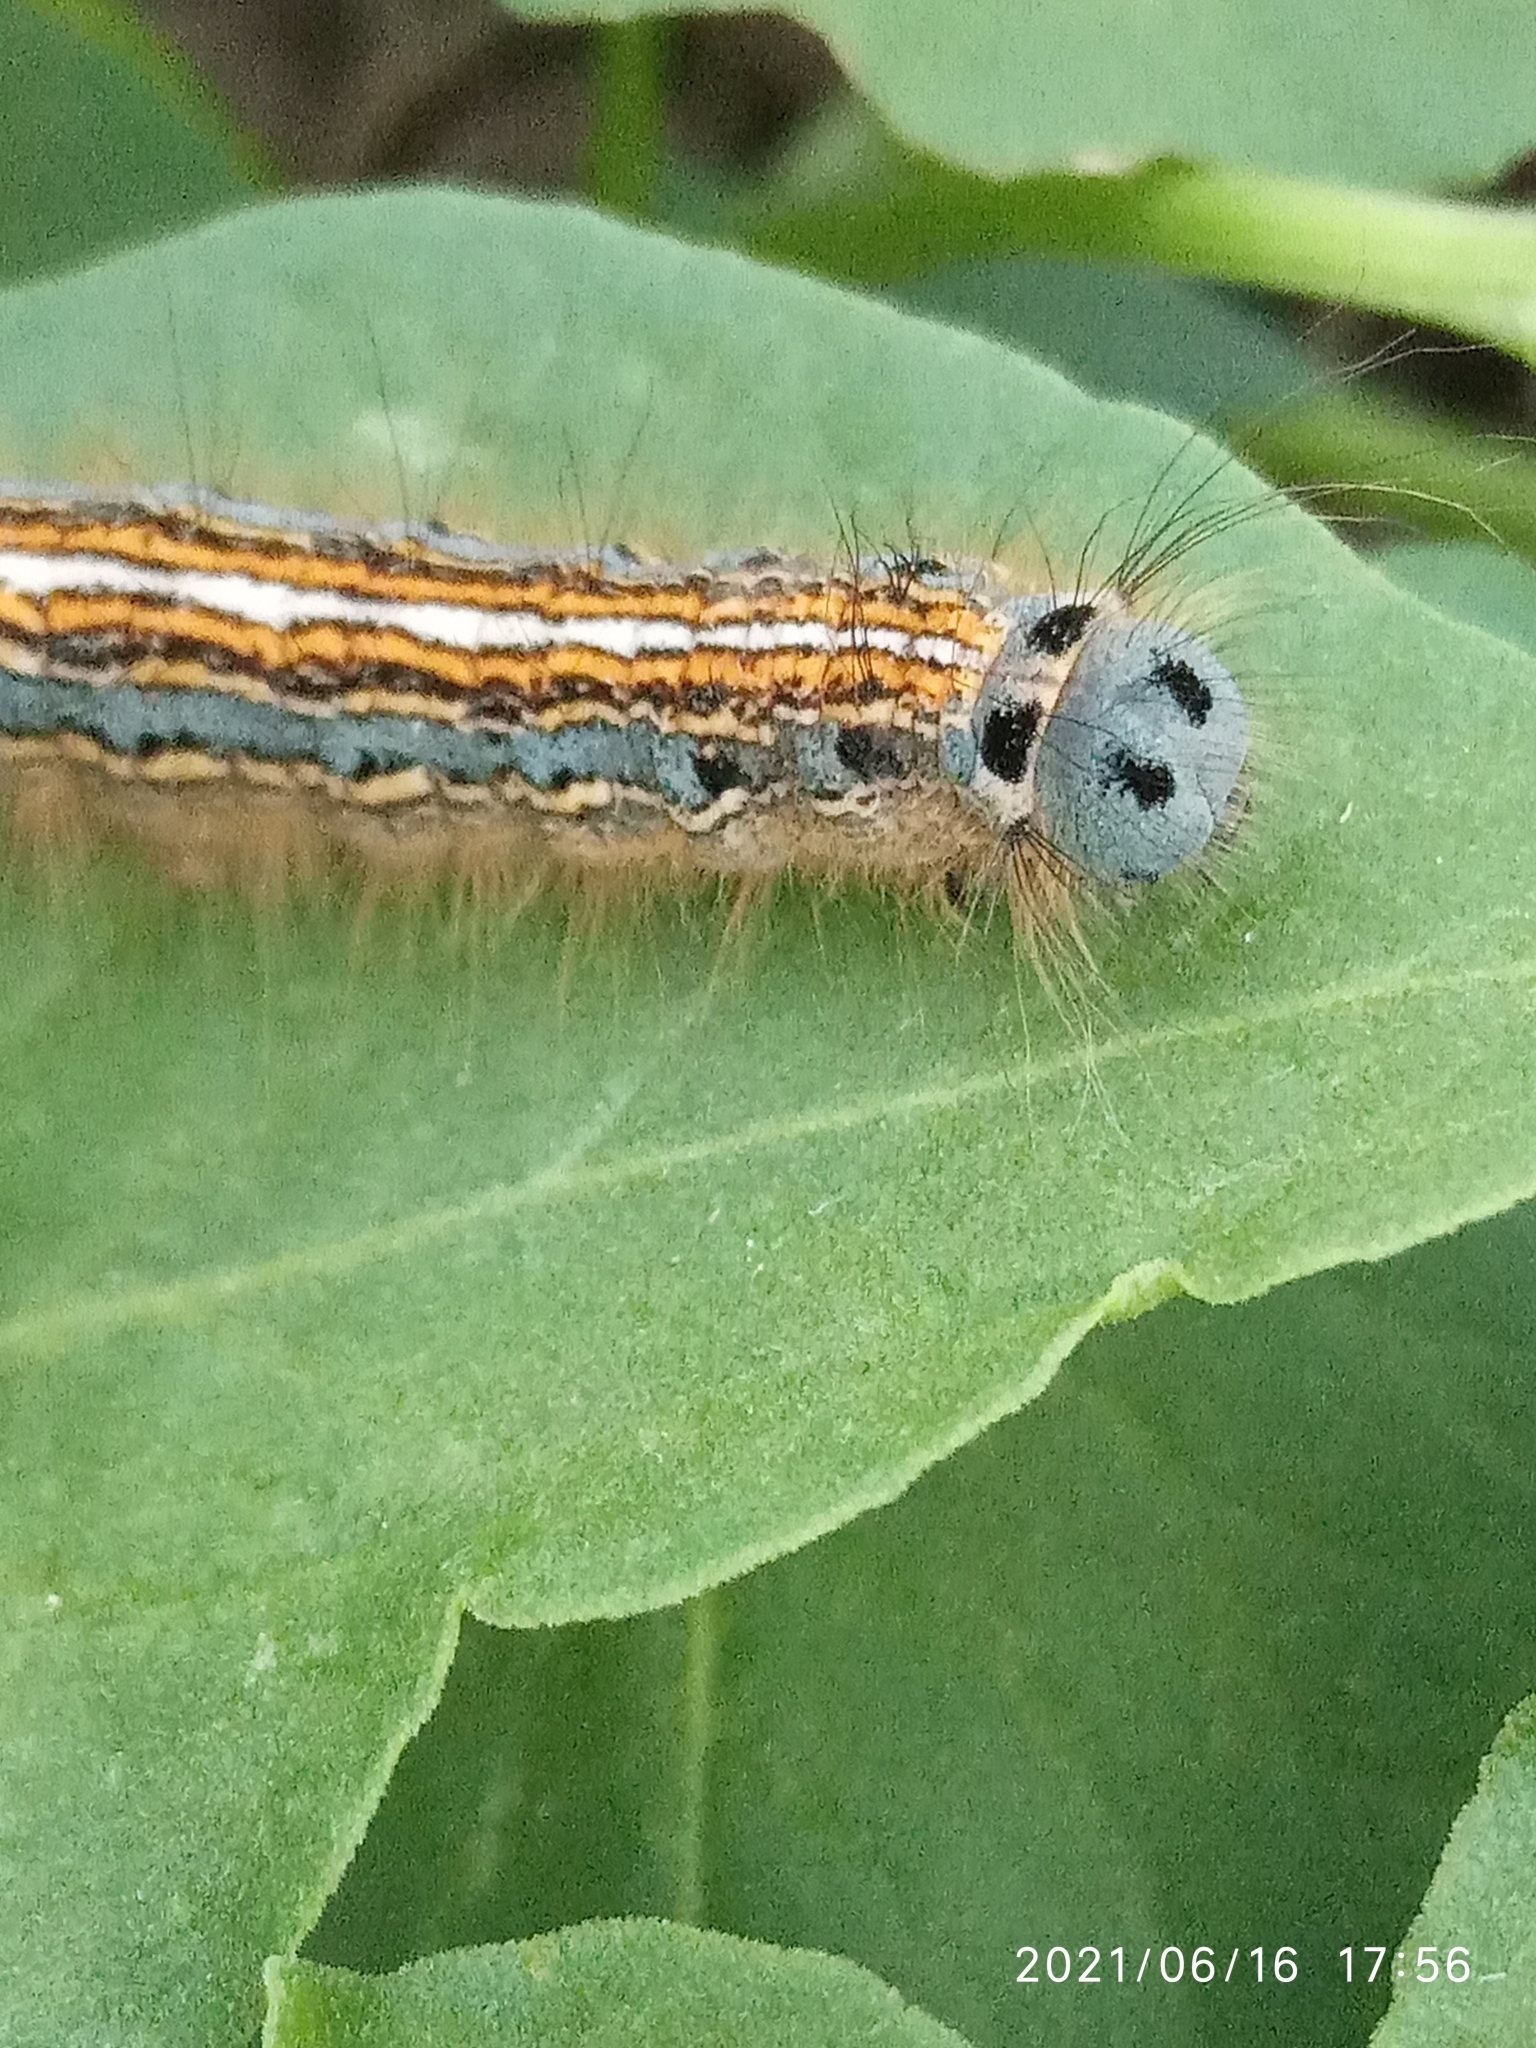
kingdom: Animalia
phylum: Arthropoda
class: Insecta
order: Lepidoptera
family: Lasiocampidae
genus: Malacosoma
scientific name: Malacosoma neustria
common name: The lackey
